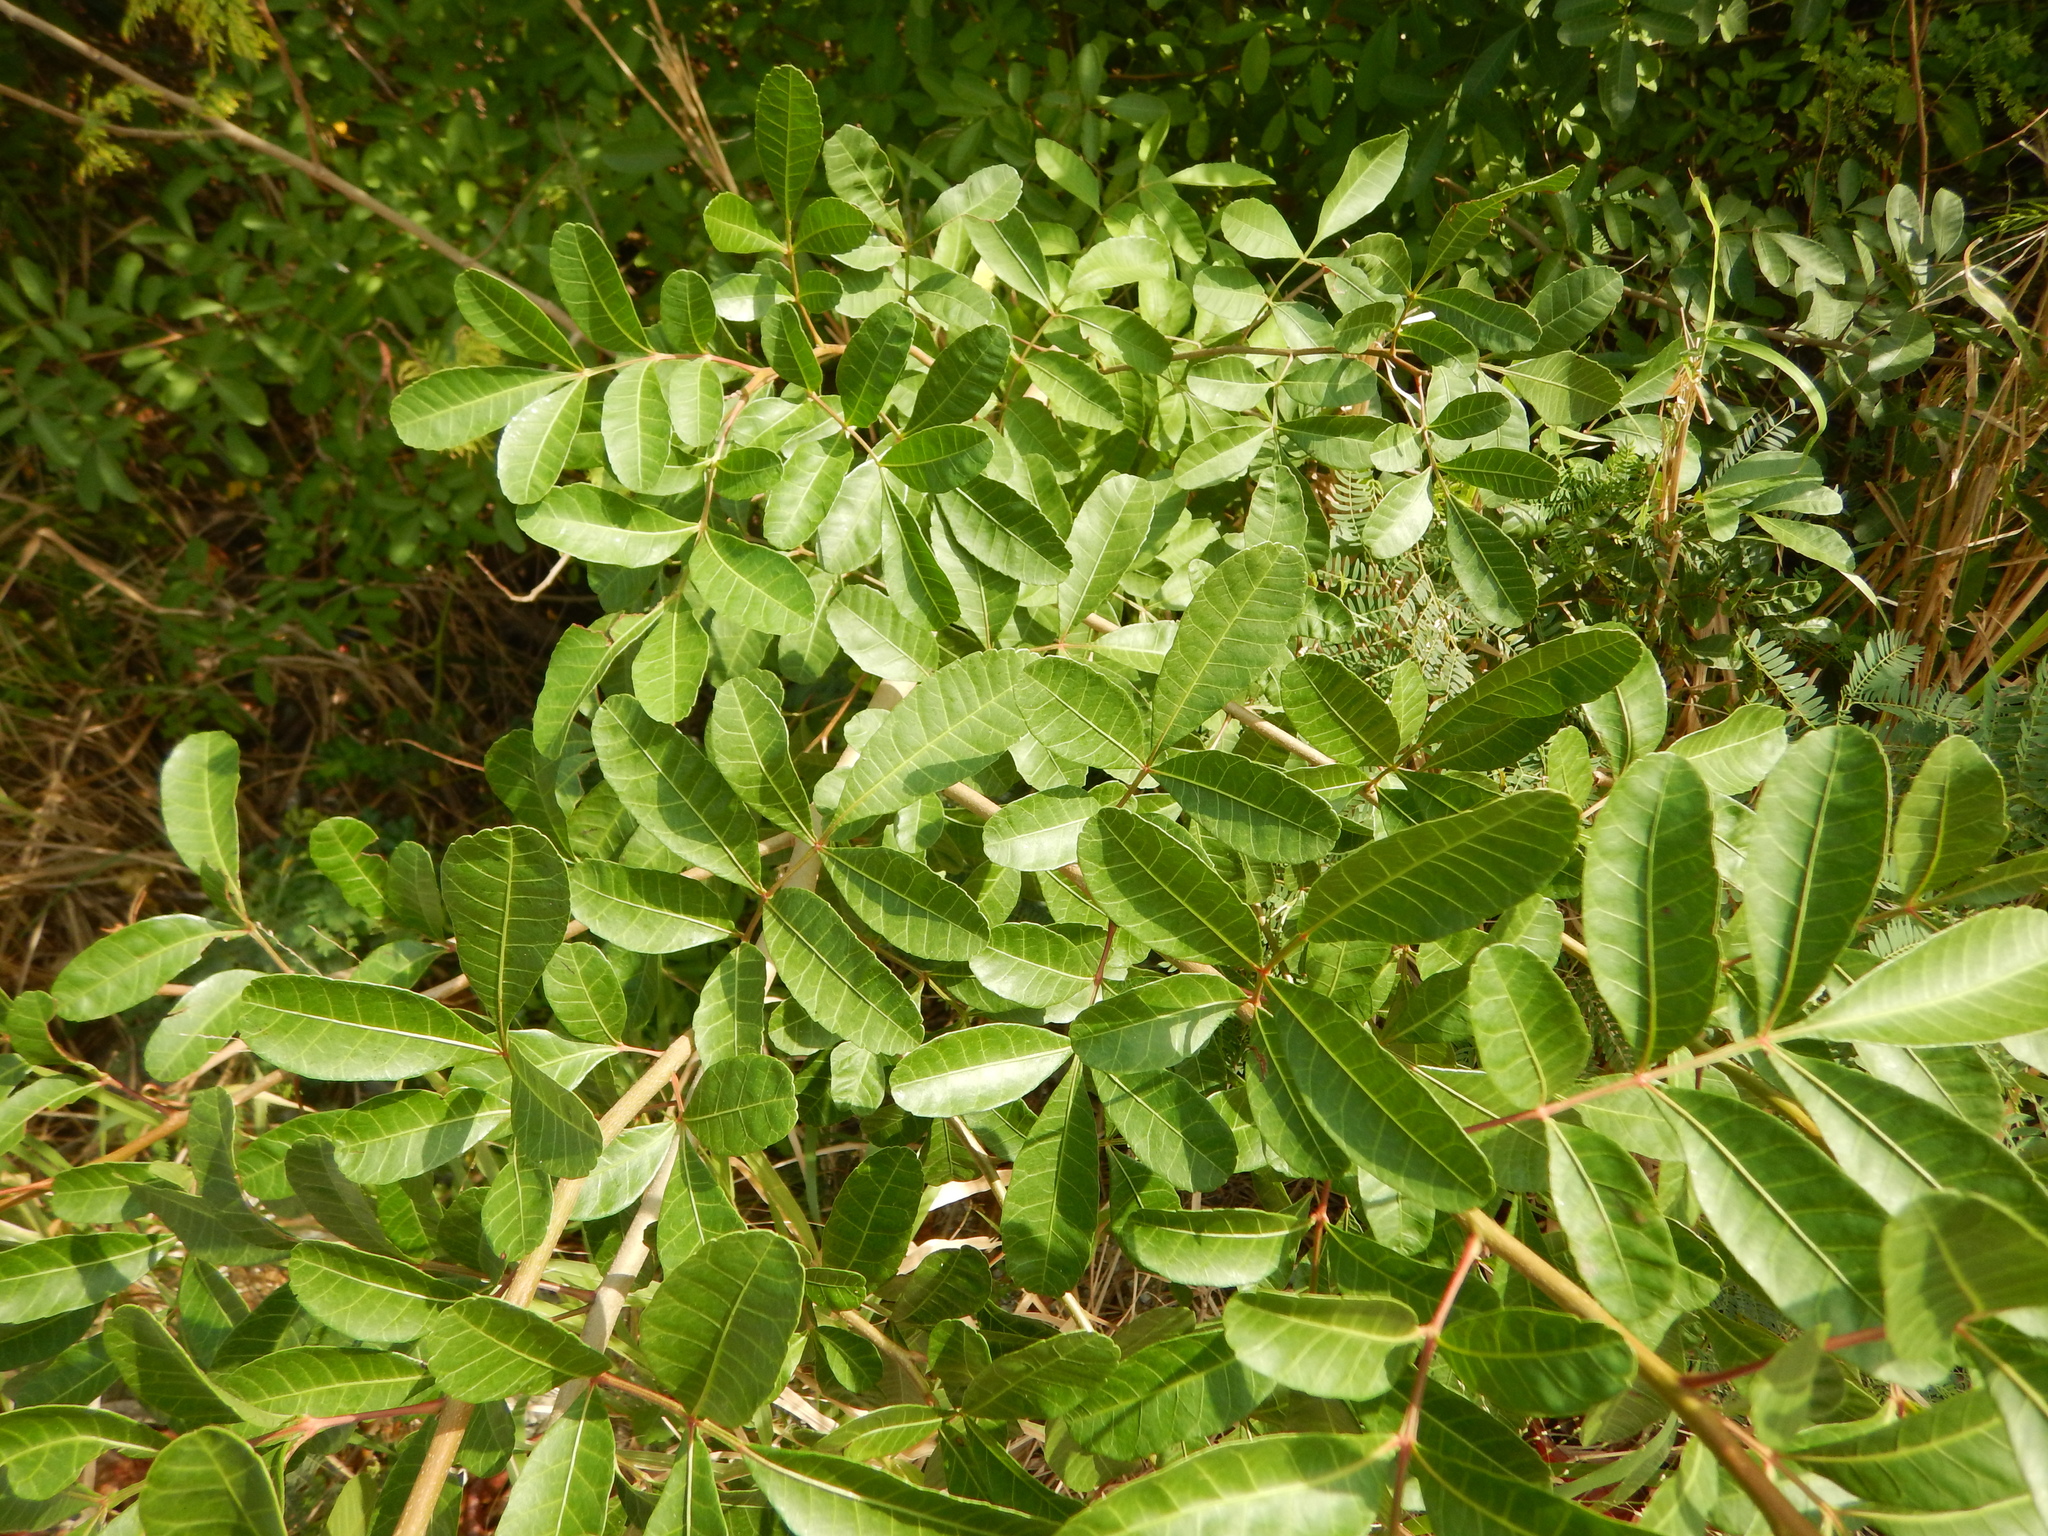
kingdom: Plantae
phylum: Tracheophyta
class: Magnoliopsida
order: Sapindales
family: Anacardiaceae
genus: Schinus
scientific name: Schinus terebinthifolia
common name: Brazilian peppertree
